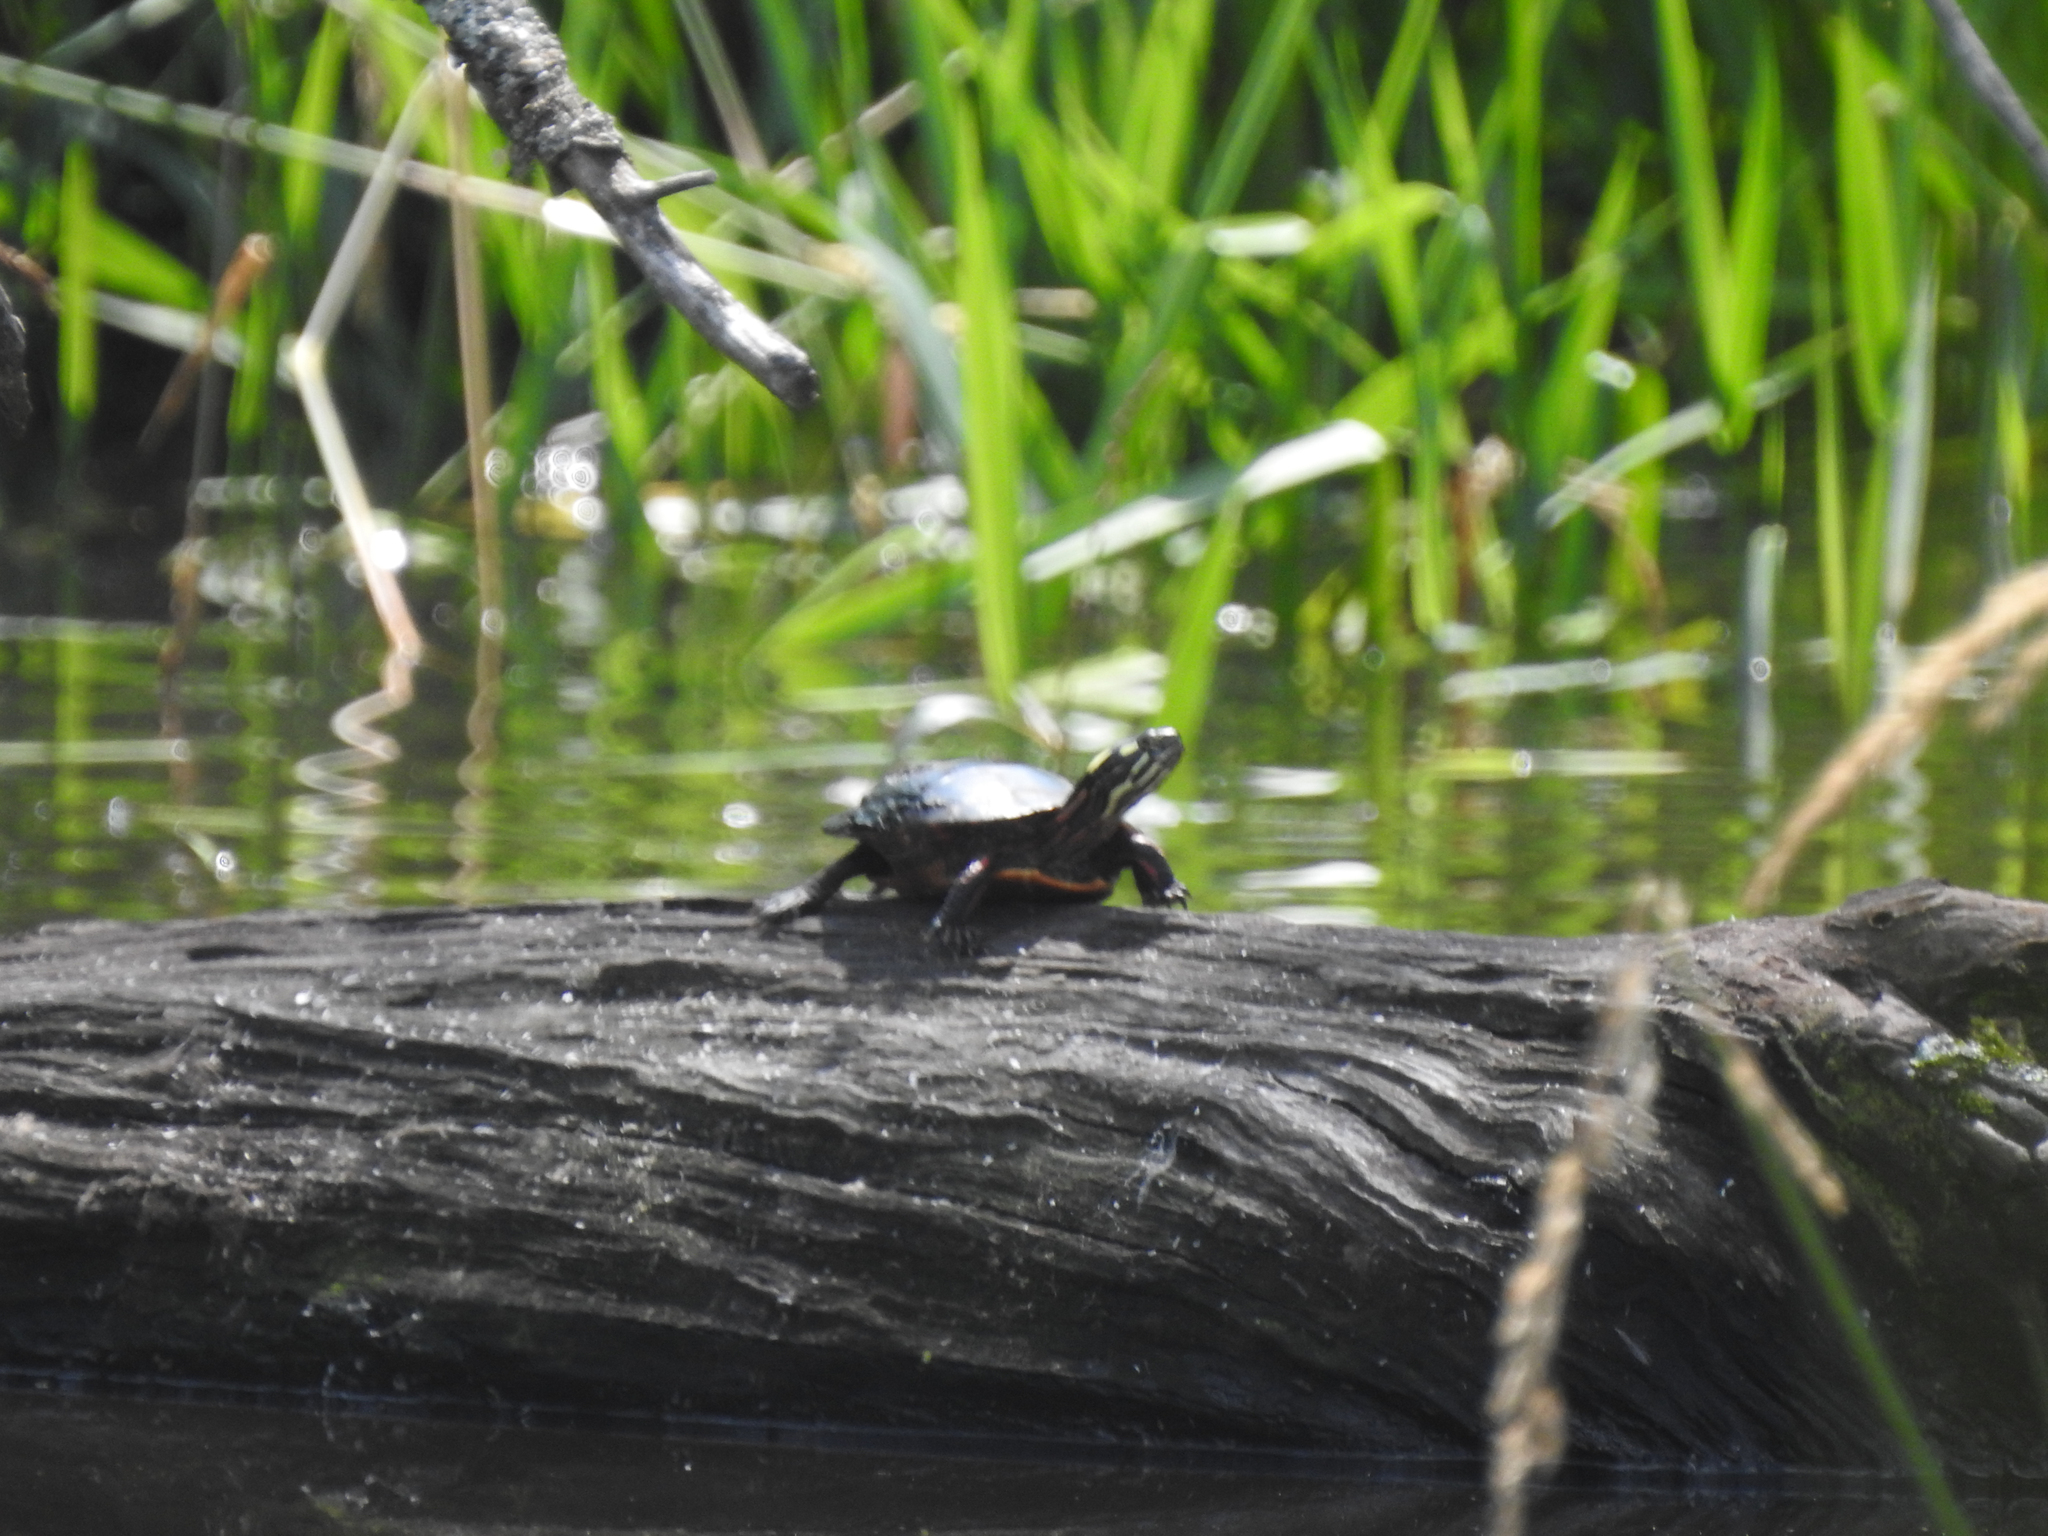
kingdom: Animalia
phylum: Chordata
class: Testudines
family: Emydidae
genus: Chrysemys
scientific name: Chrysemys picta
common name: Painted turtle
